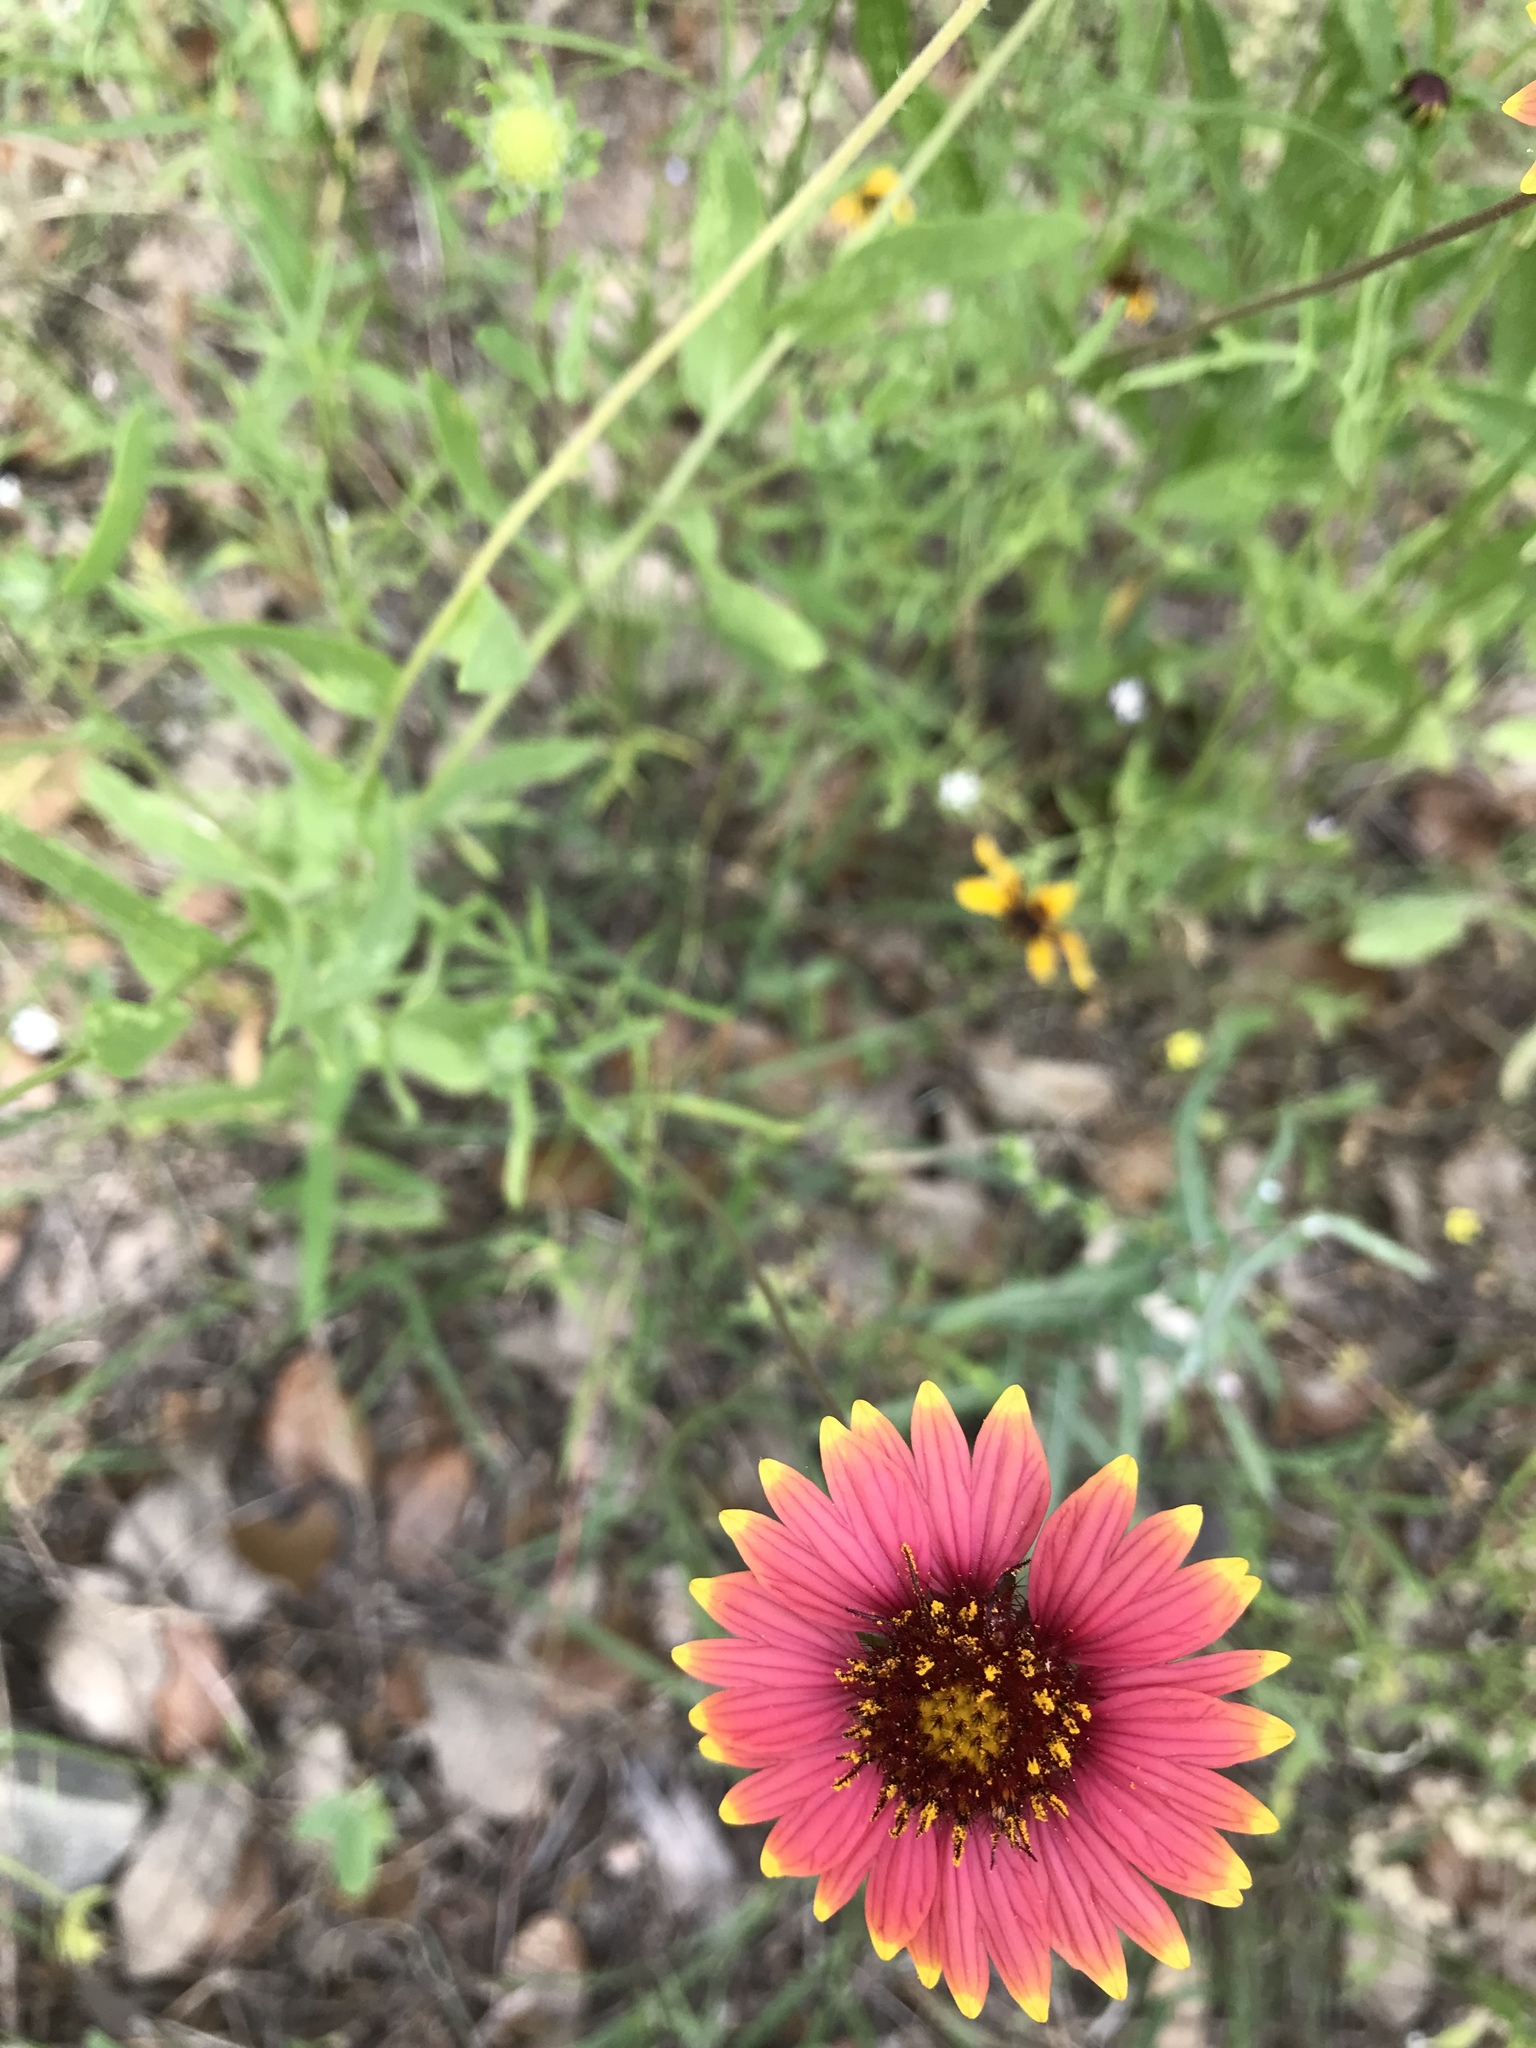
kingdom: Plantae
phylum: Tracheophyta
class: Magnoliopsida
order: Asterales
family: Asteraceae
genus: Gaillardia
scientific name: Gaillardia pulchella
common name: Firewheel
